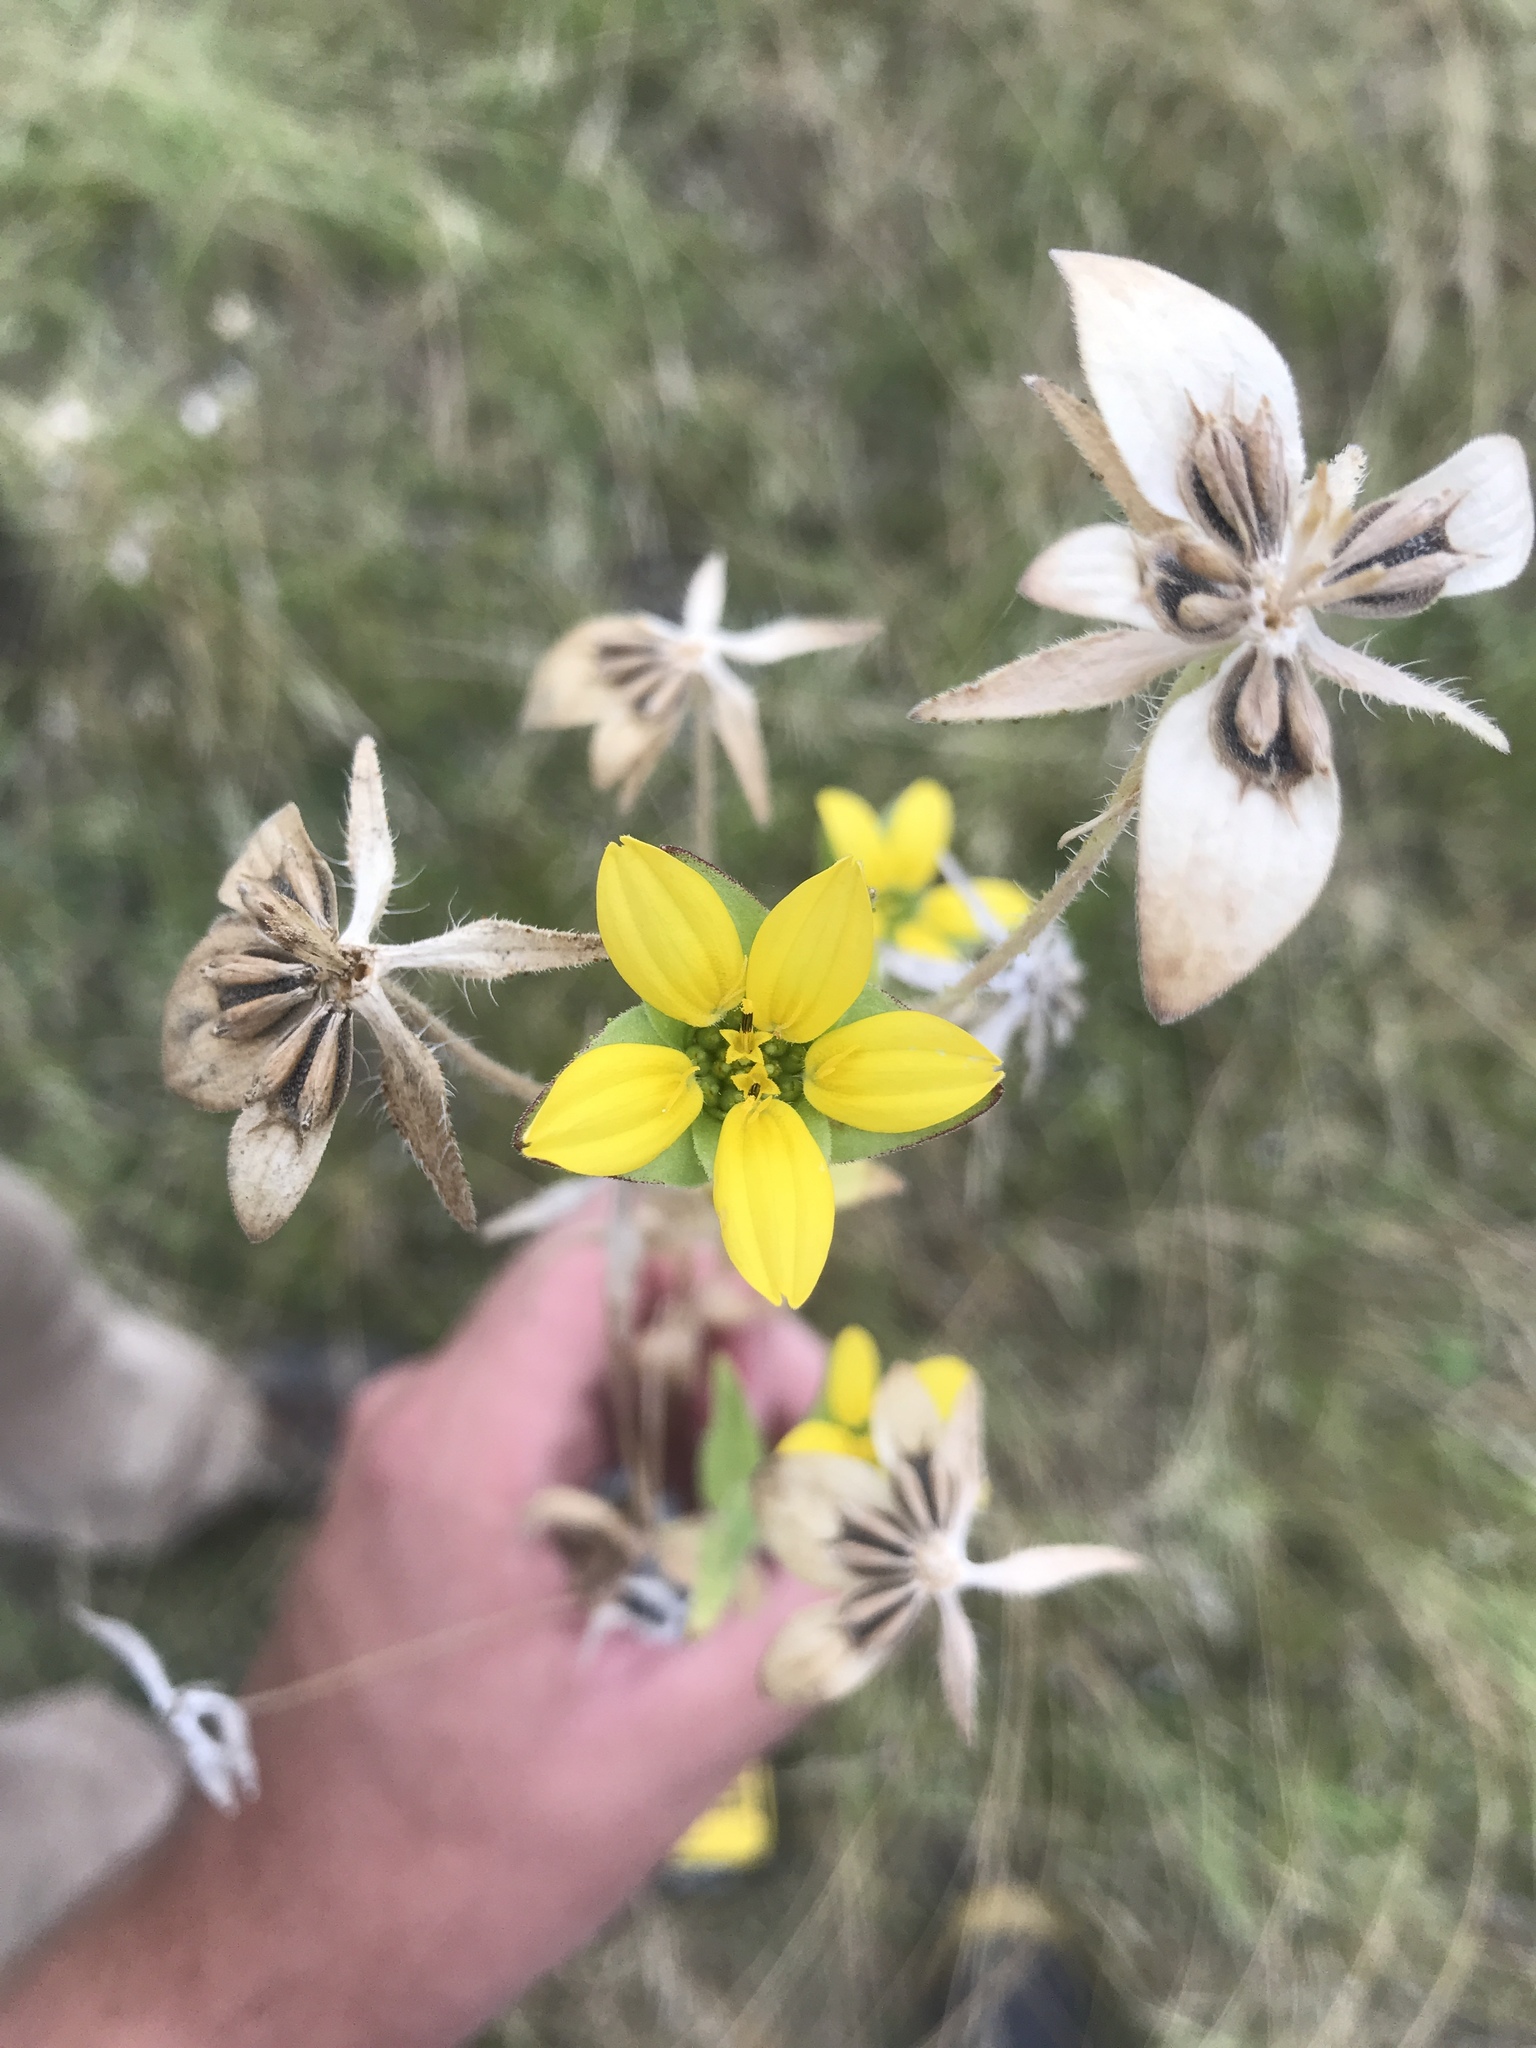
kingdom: Plantae
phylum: Tracheophyta
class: Magnoliopsida
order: Asterales
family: Asteraceae
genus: Lindheimera
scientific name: Lindheimera texana
